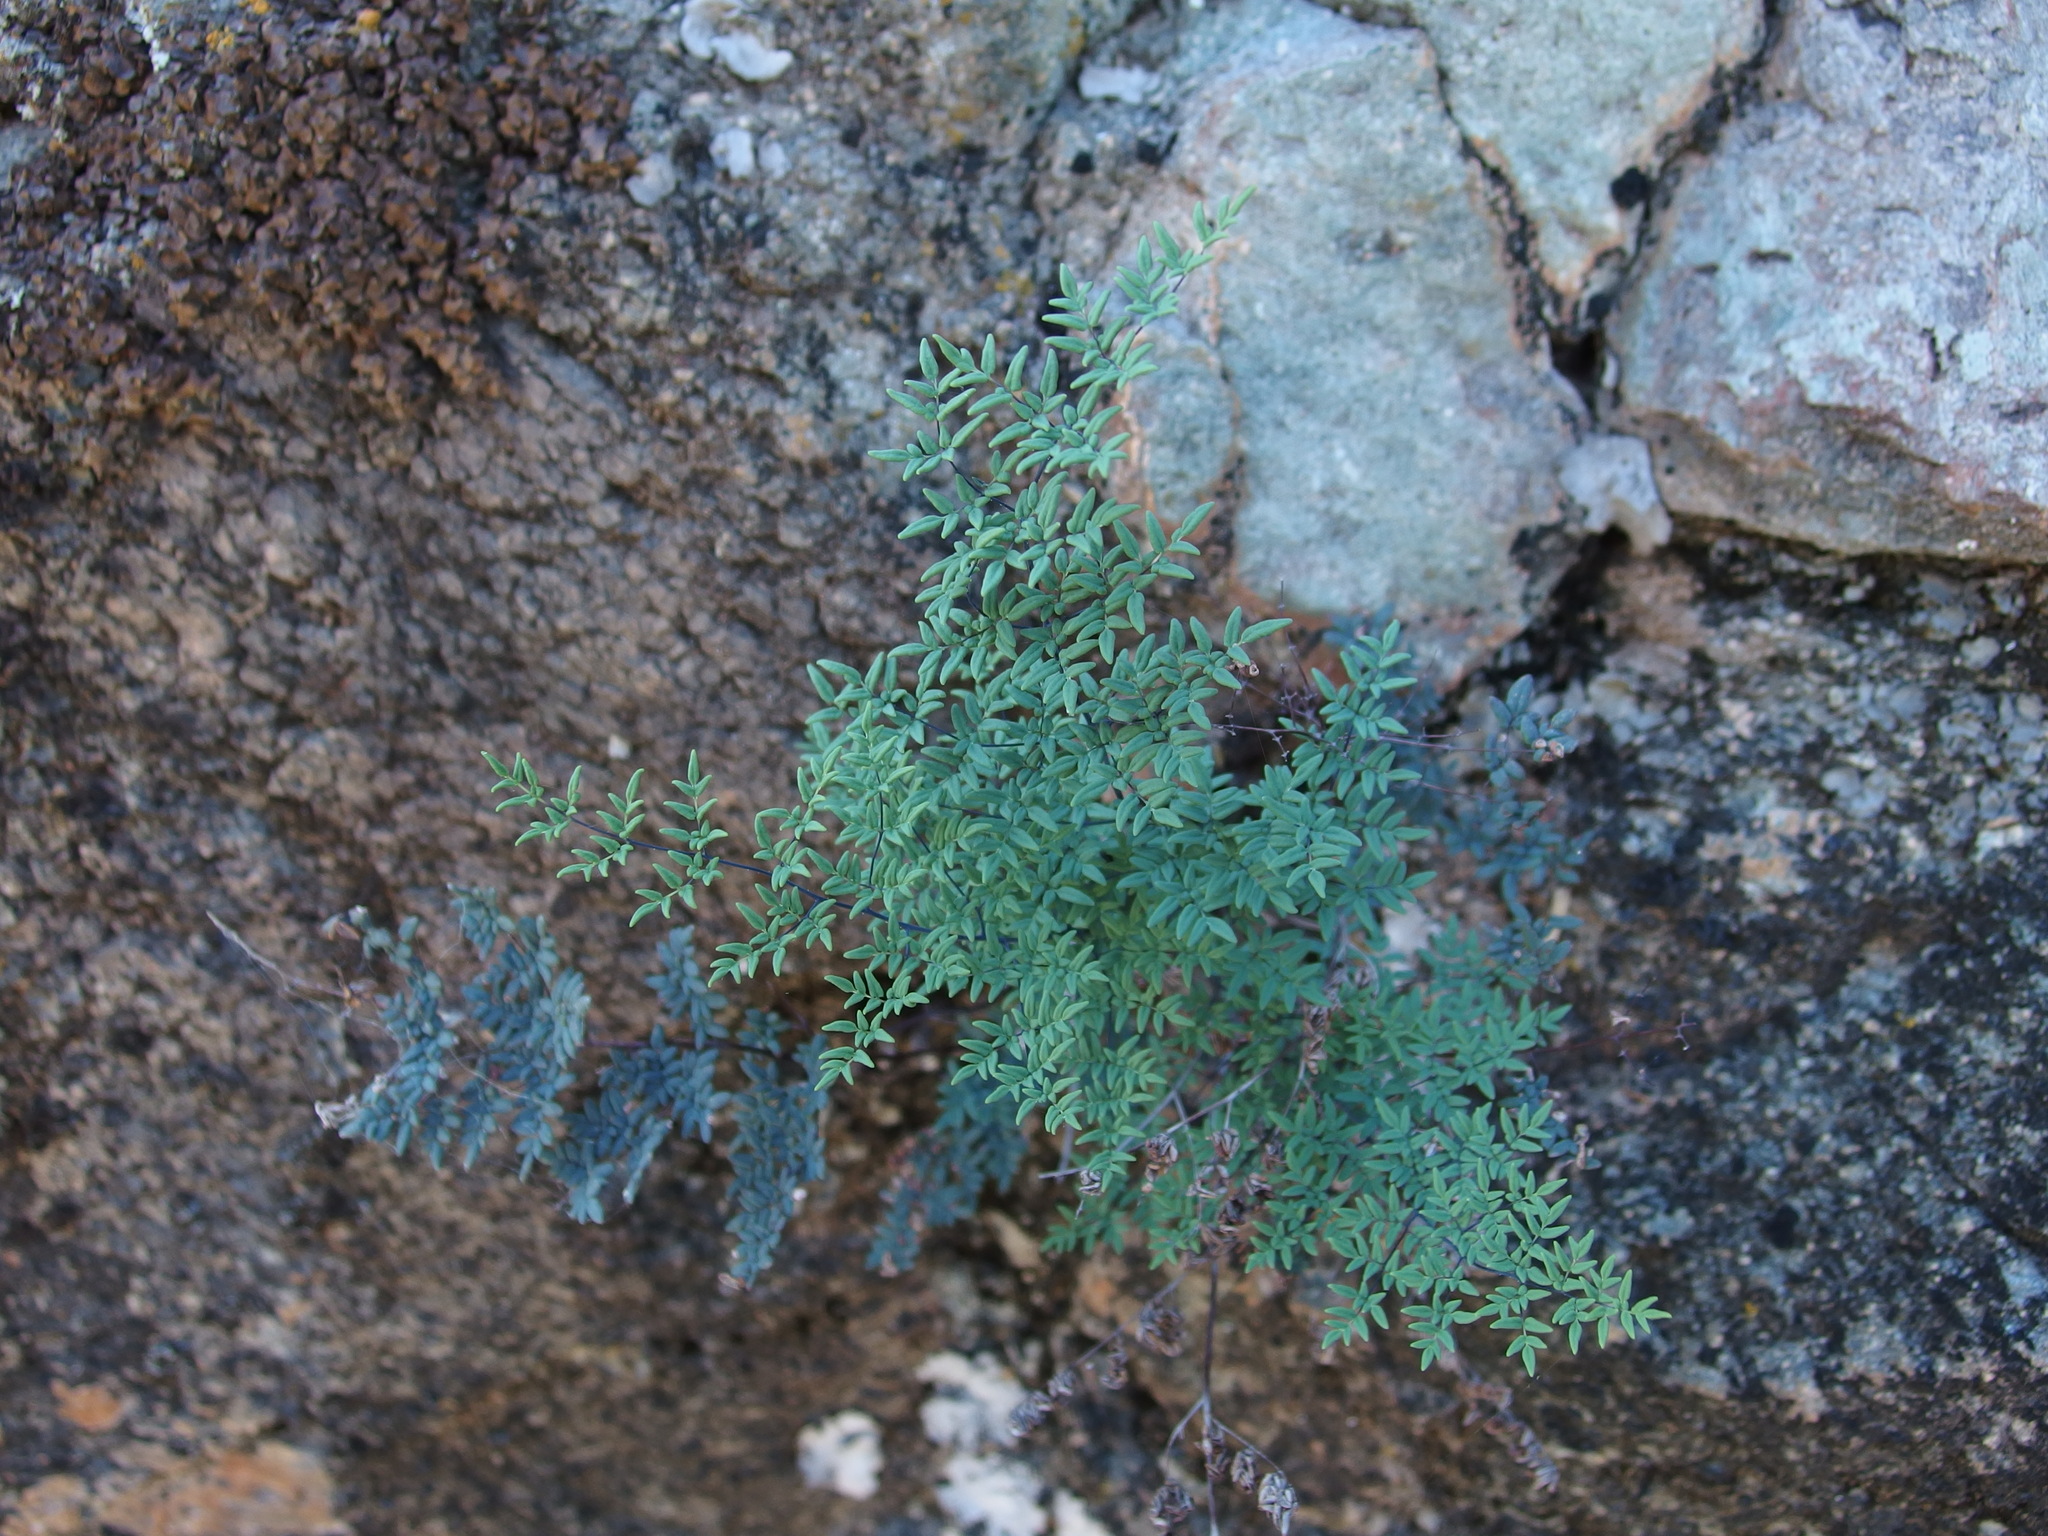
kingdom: Plantae
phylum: Tracheophyta
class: Polypodiopsida
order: Polypodiales
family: Pteridaceae
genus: Argyrochosma
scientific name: Argyrochosma limitanea
